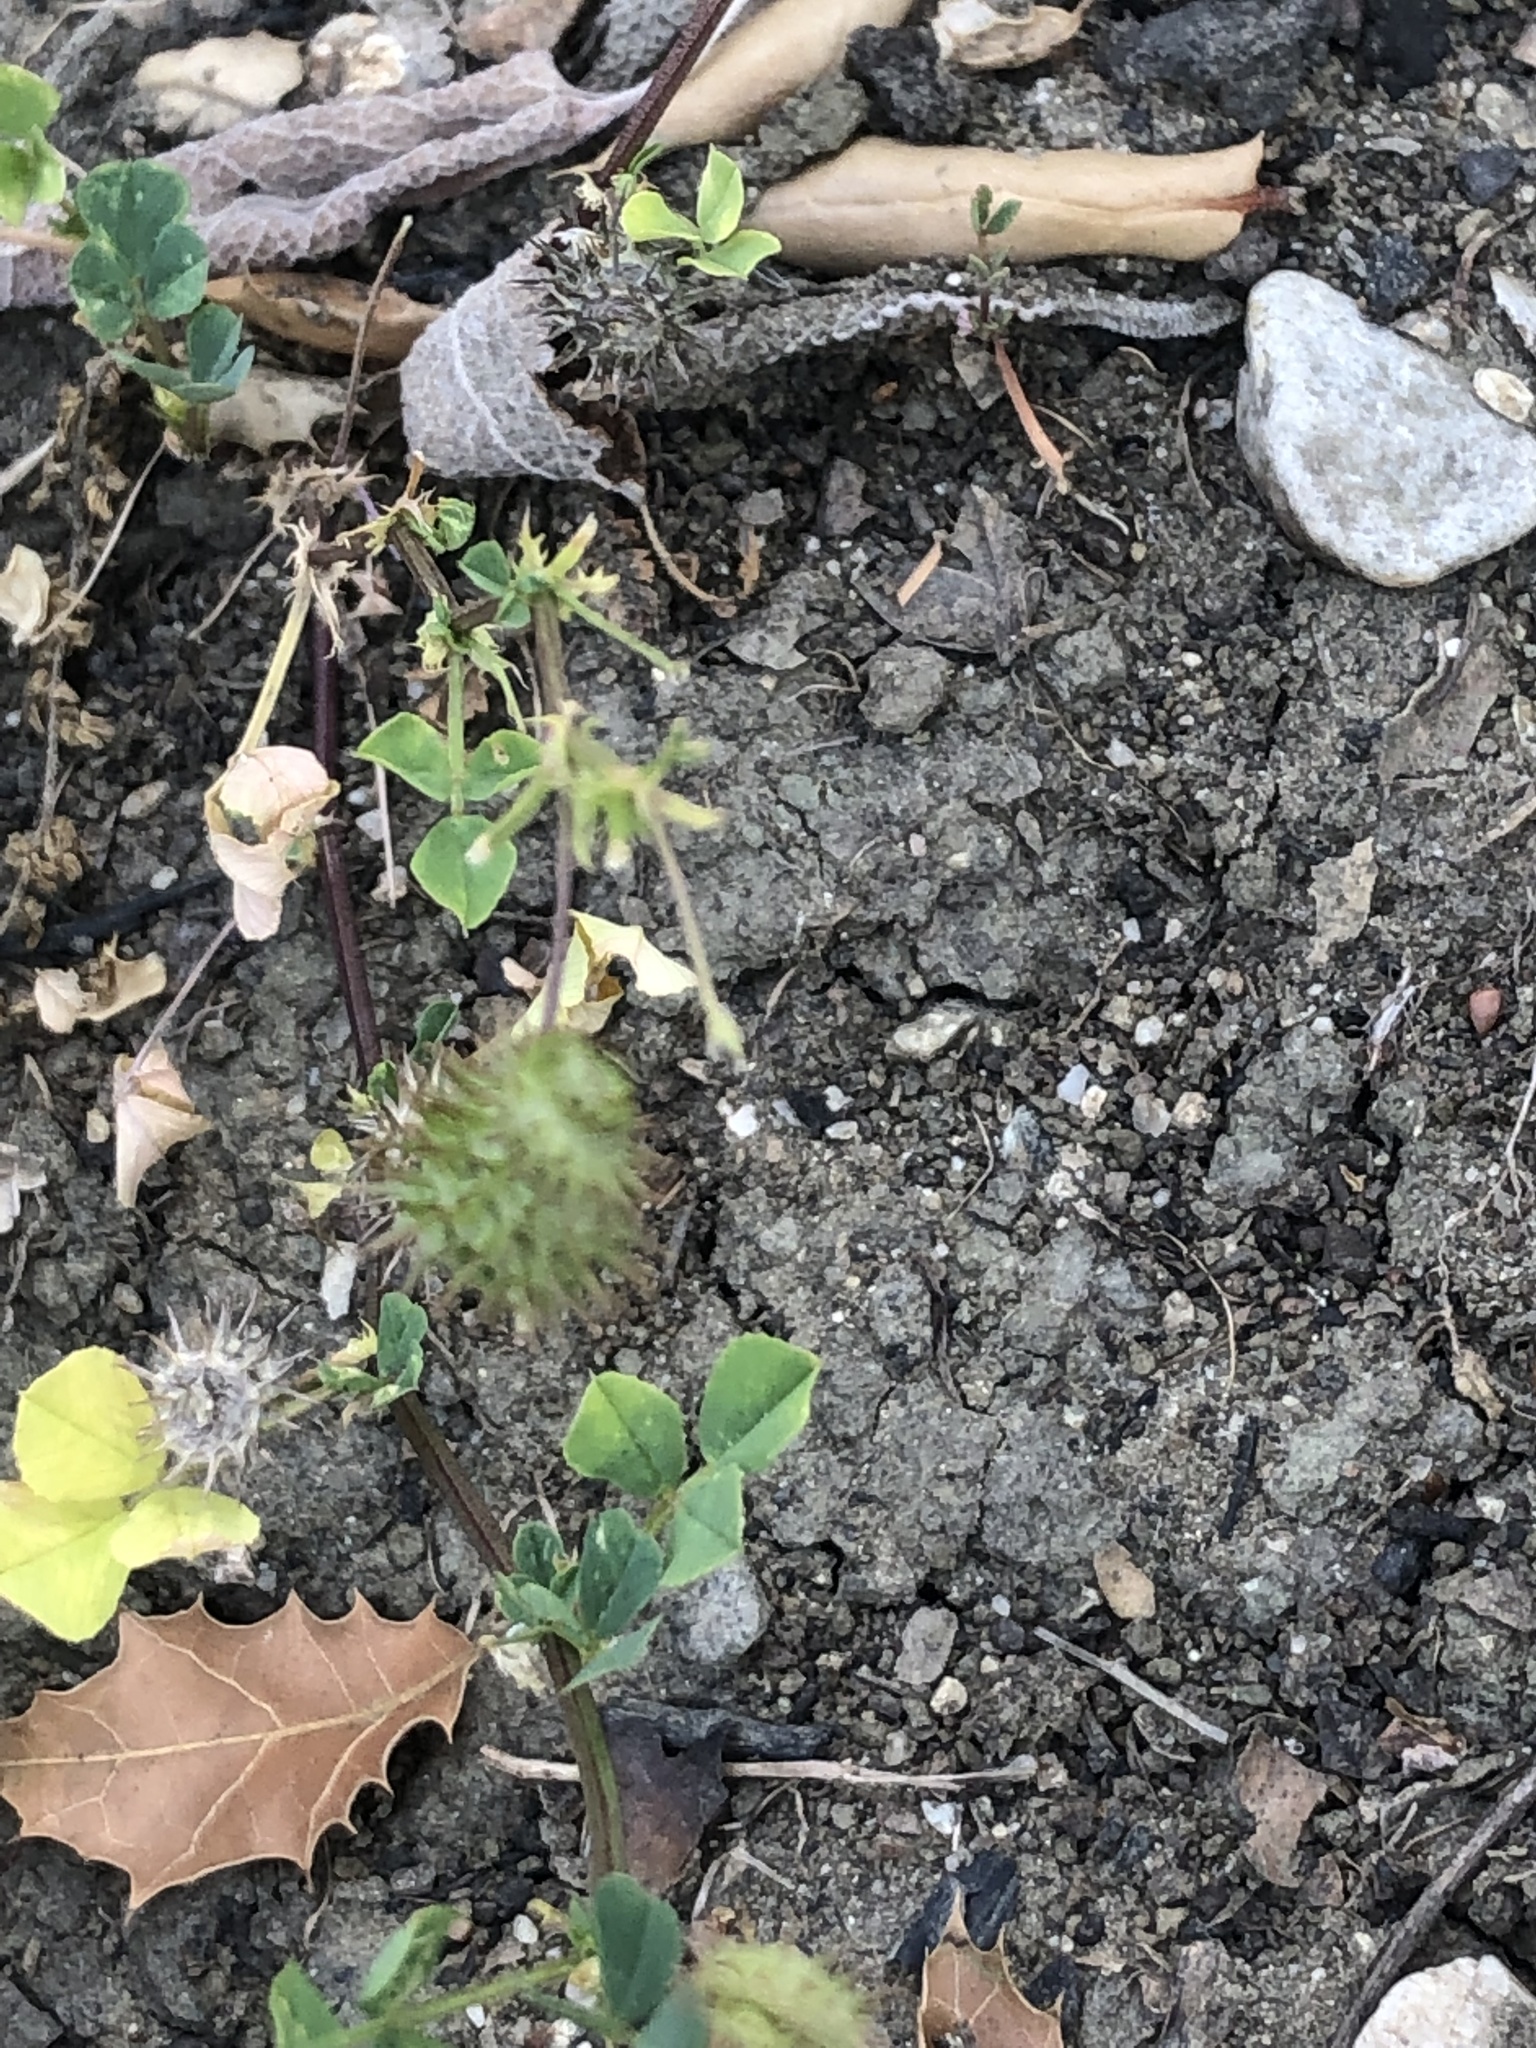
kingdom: Plantae
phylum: Tracheophyta
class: Magnoliopsida
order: Fabales
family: Fabaceae
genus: Medicago
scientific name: Medicago polymorpha
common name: Burclover
